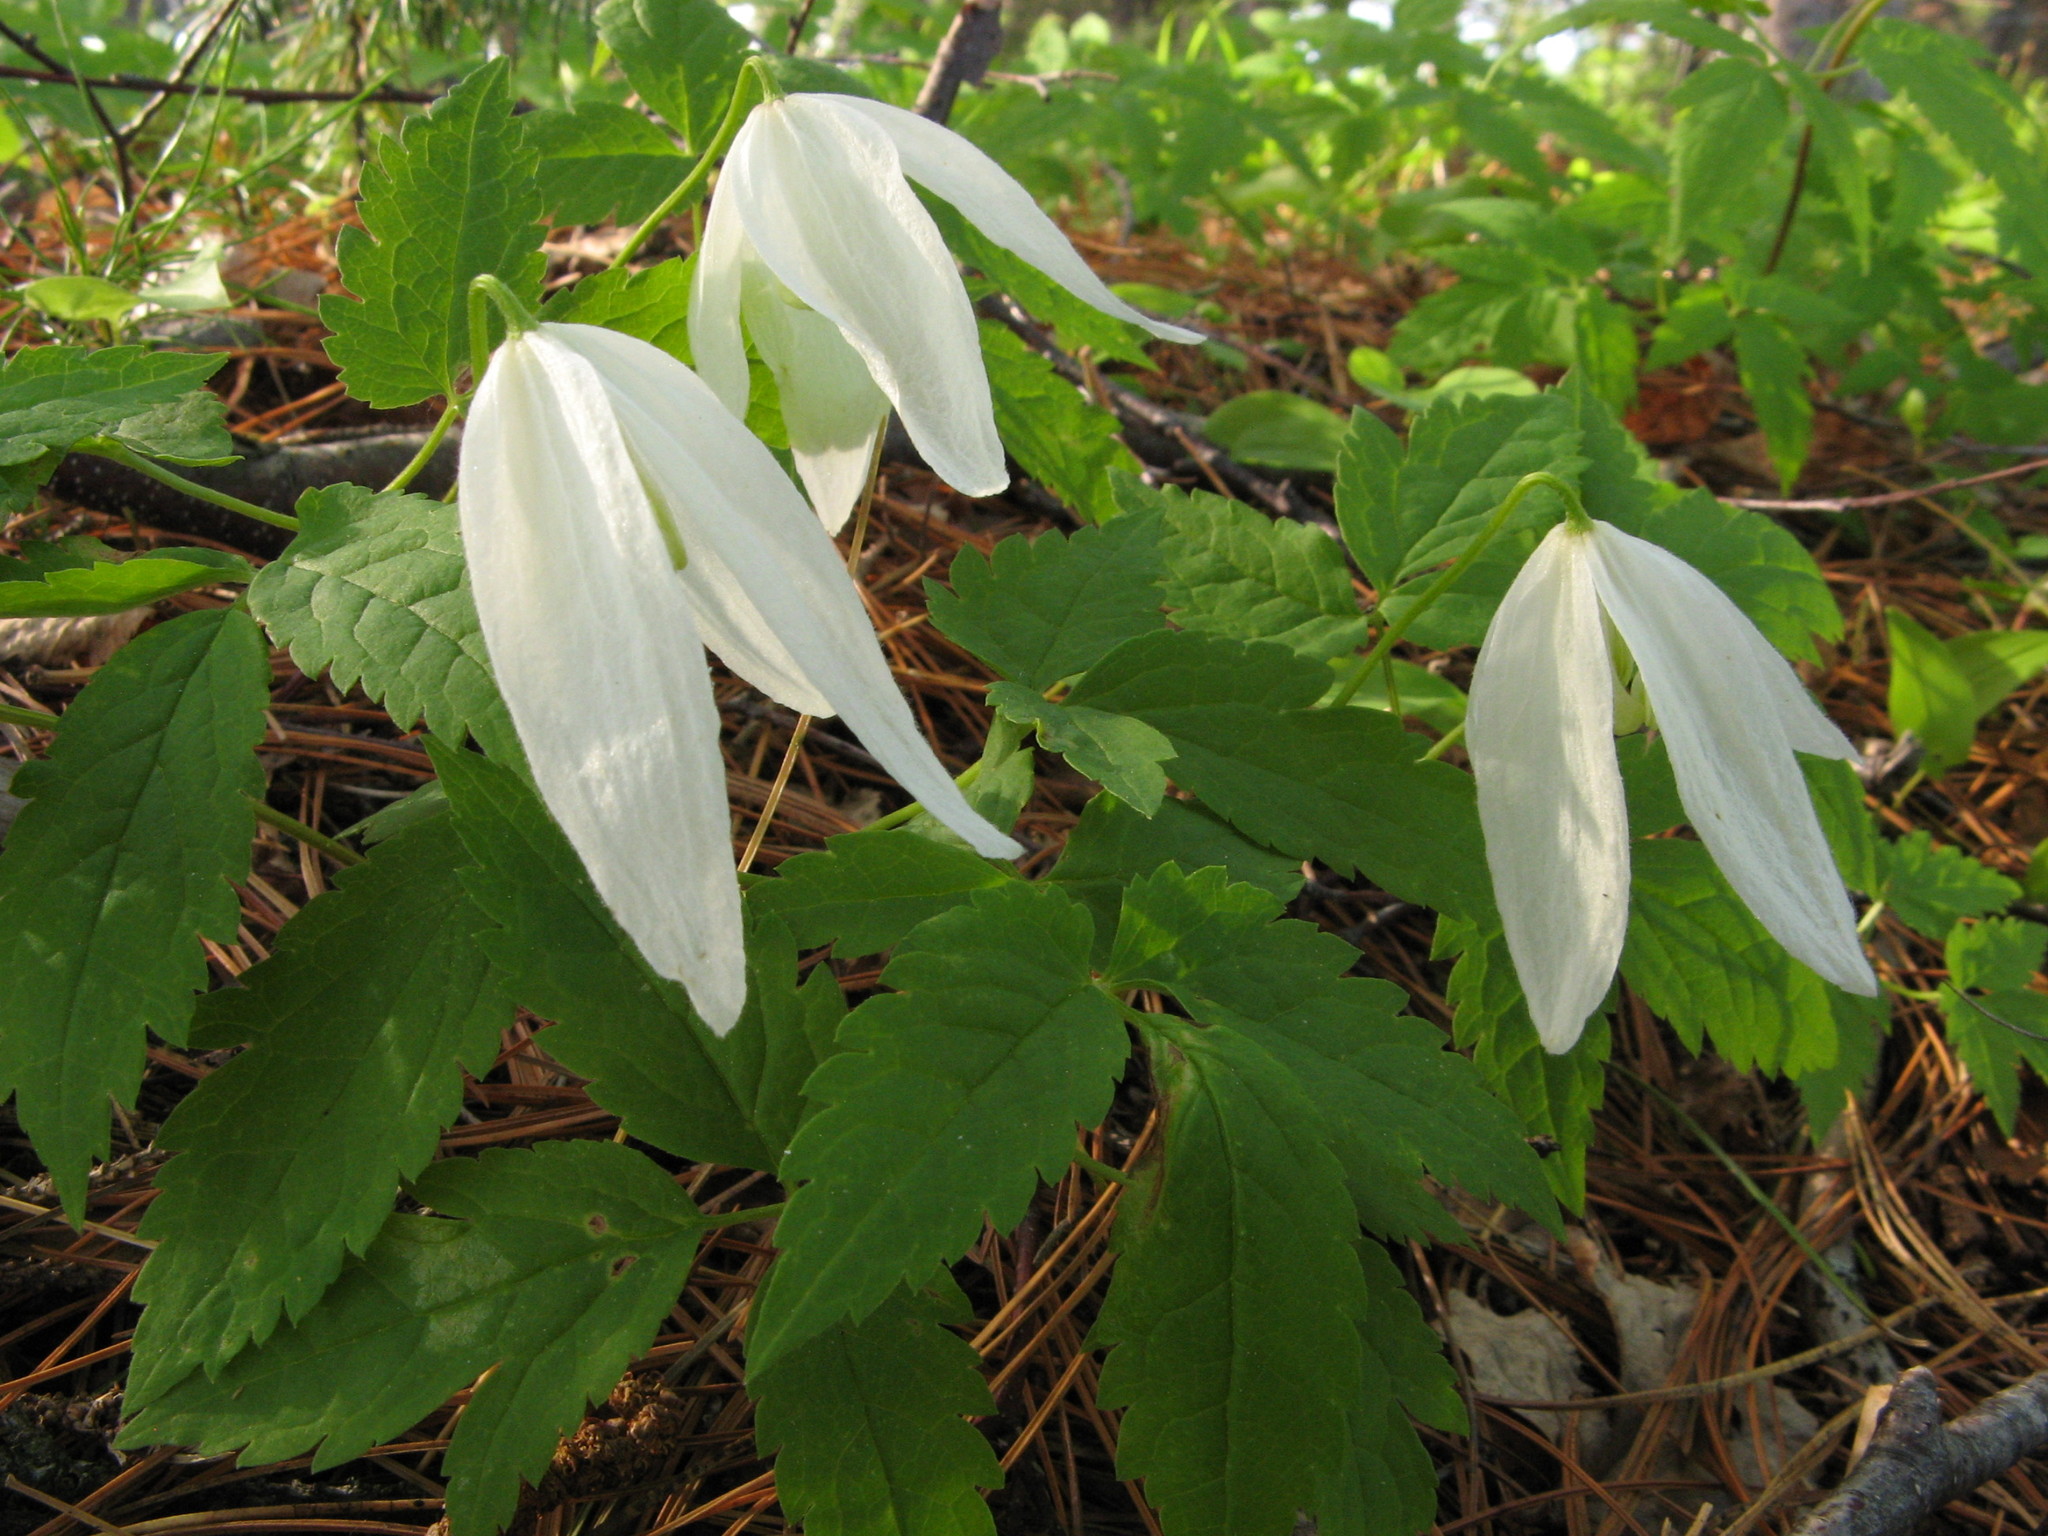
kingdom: Plantae
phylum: Tracheophyta
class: Magnoliopsida
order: Ranunculales
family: Ranunculaceae
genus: Clematis
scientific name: Clematis sibirica
